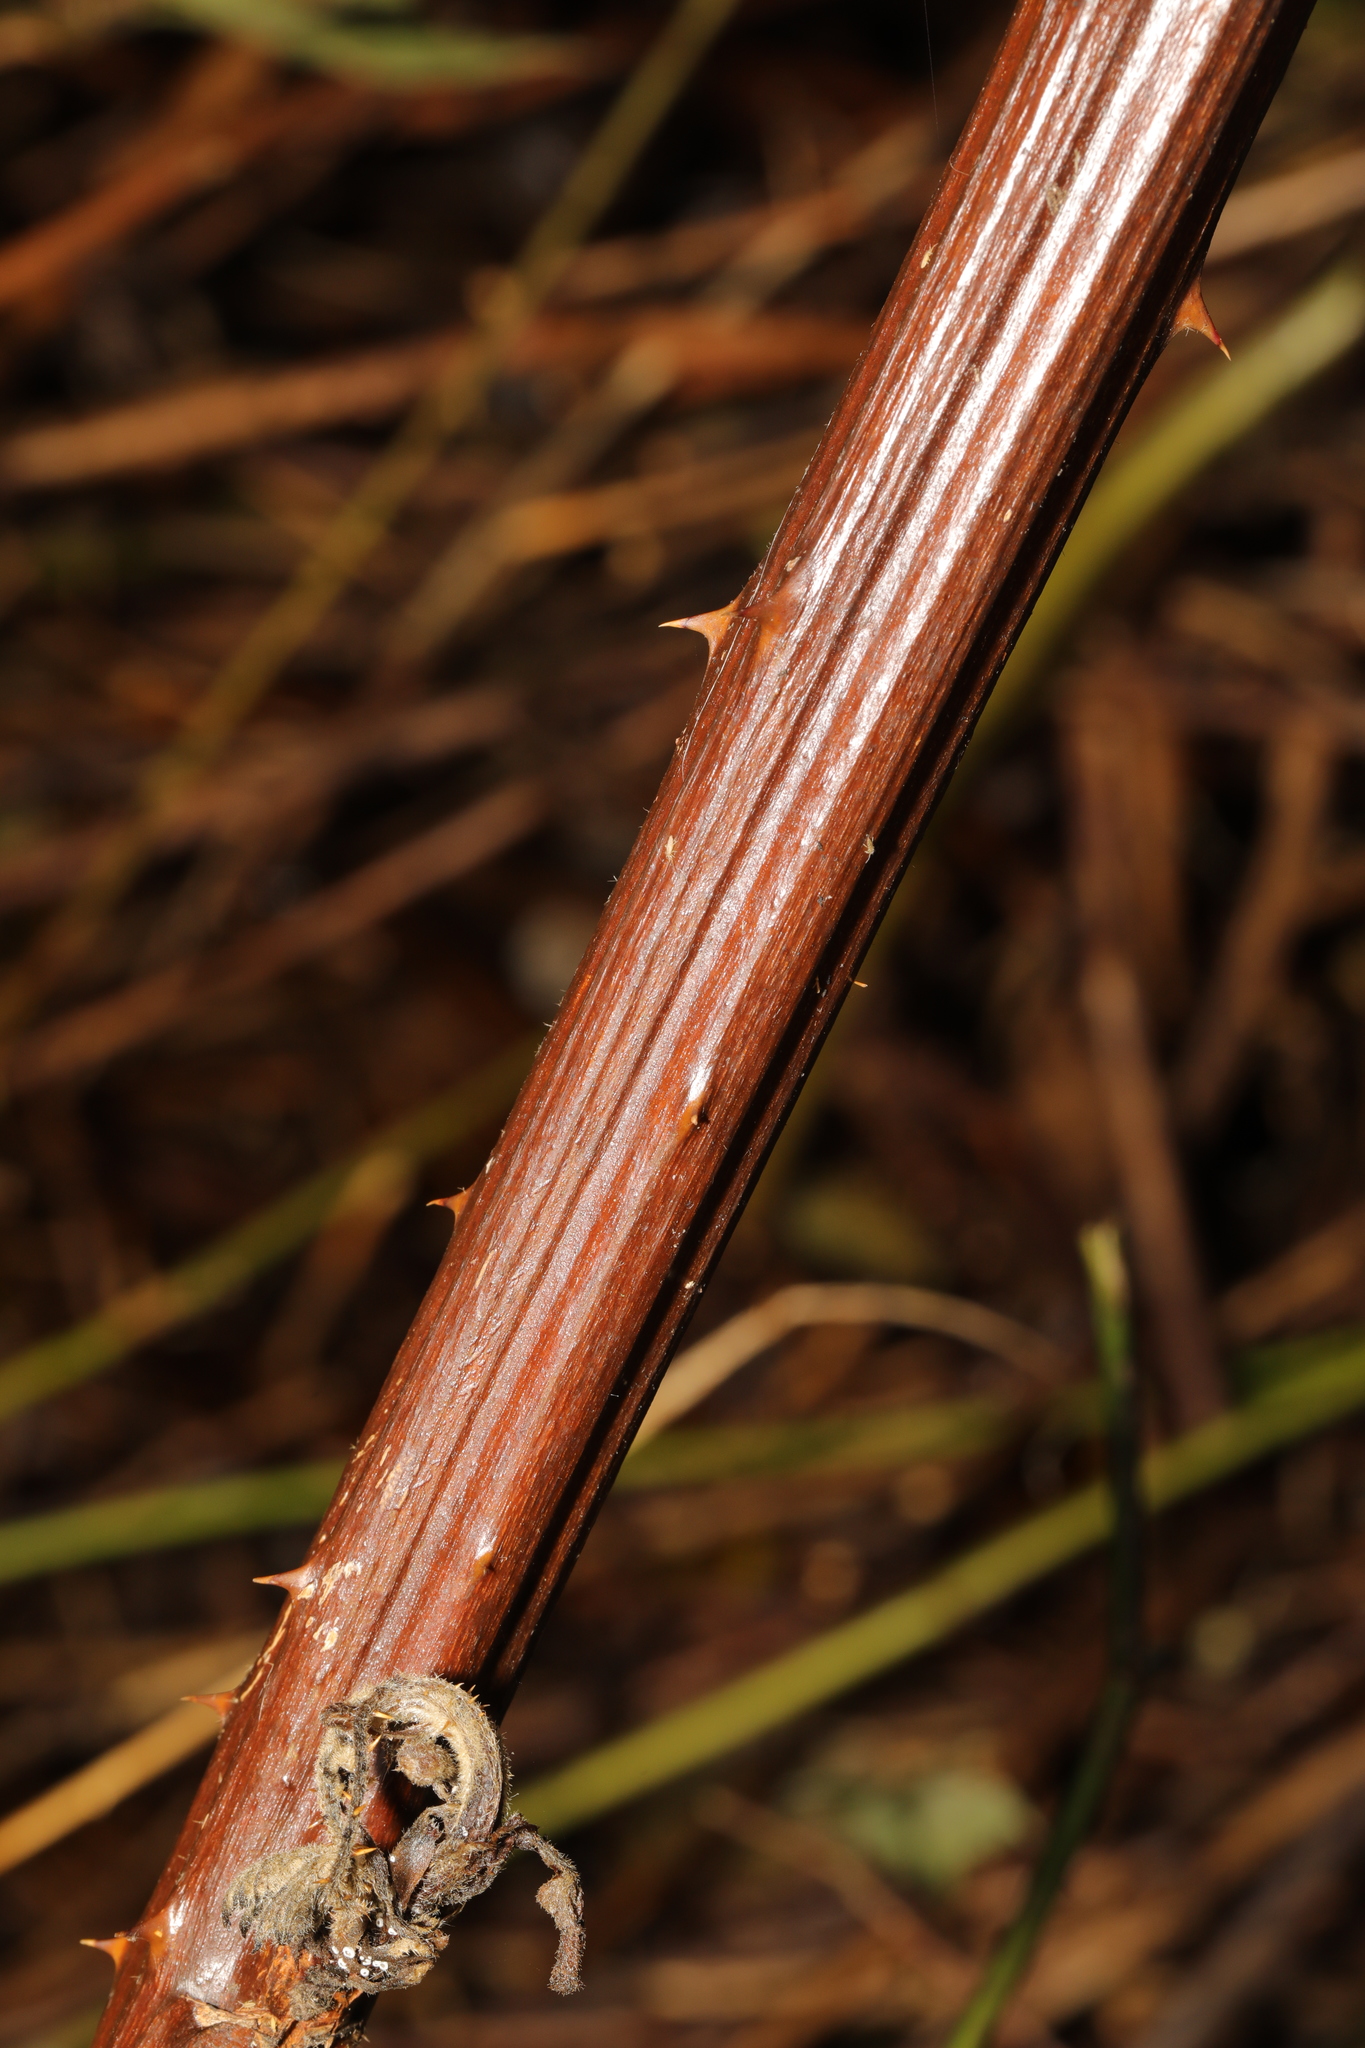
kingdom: Plantae
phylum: Tracheophyta
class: Magnoliopsida
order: Rosales
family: Rosaceae
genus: Rubus
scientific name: Rubus armeniacus
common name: Himalayan blackberry
